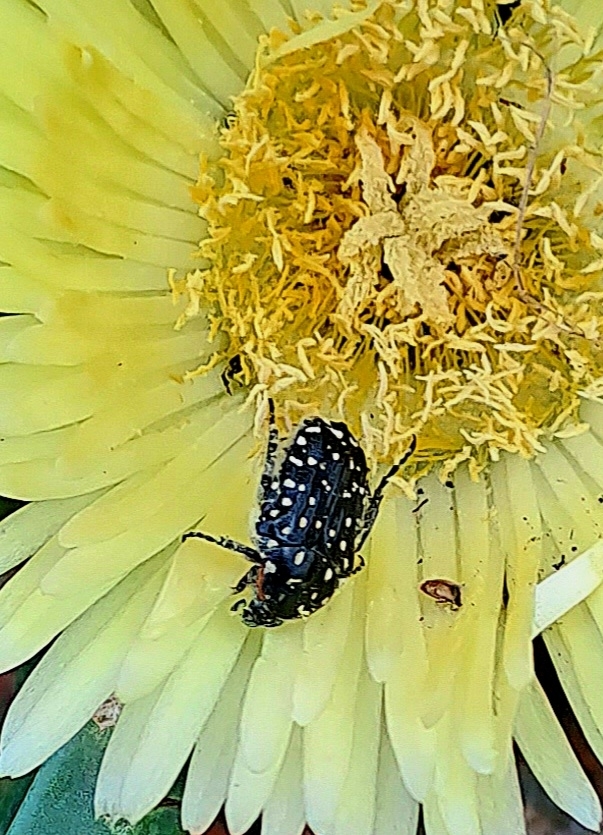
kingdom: Animalia
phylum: Arthropoda
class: Insecta
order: Coleoptera
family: Scarabaeidae
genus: Oxythyrea
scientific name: Oxythyrea
